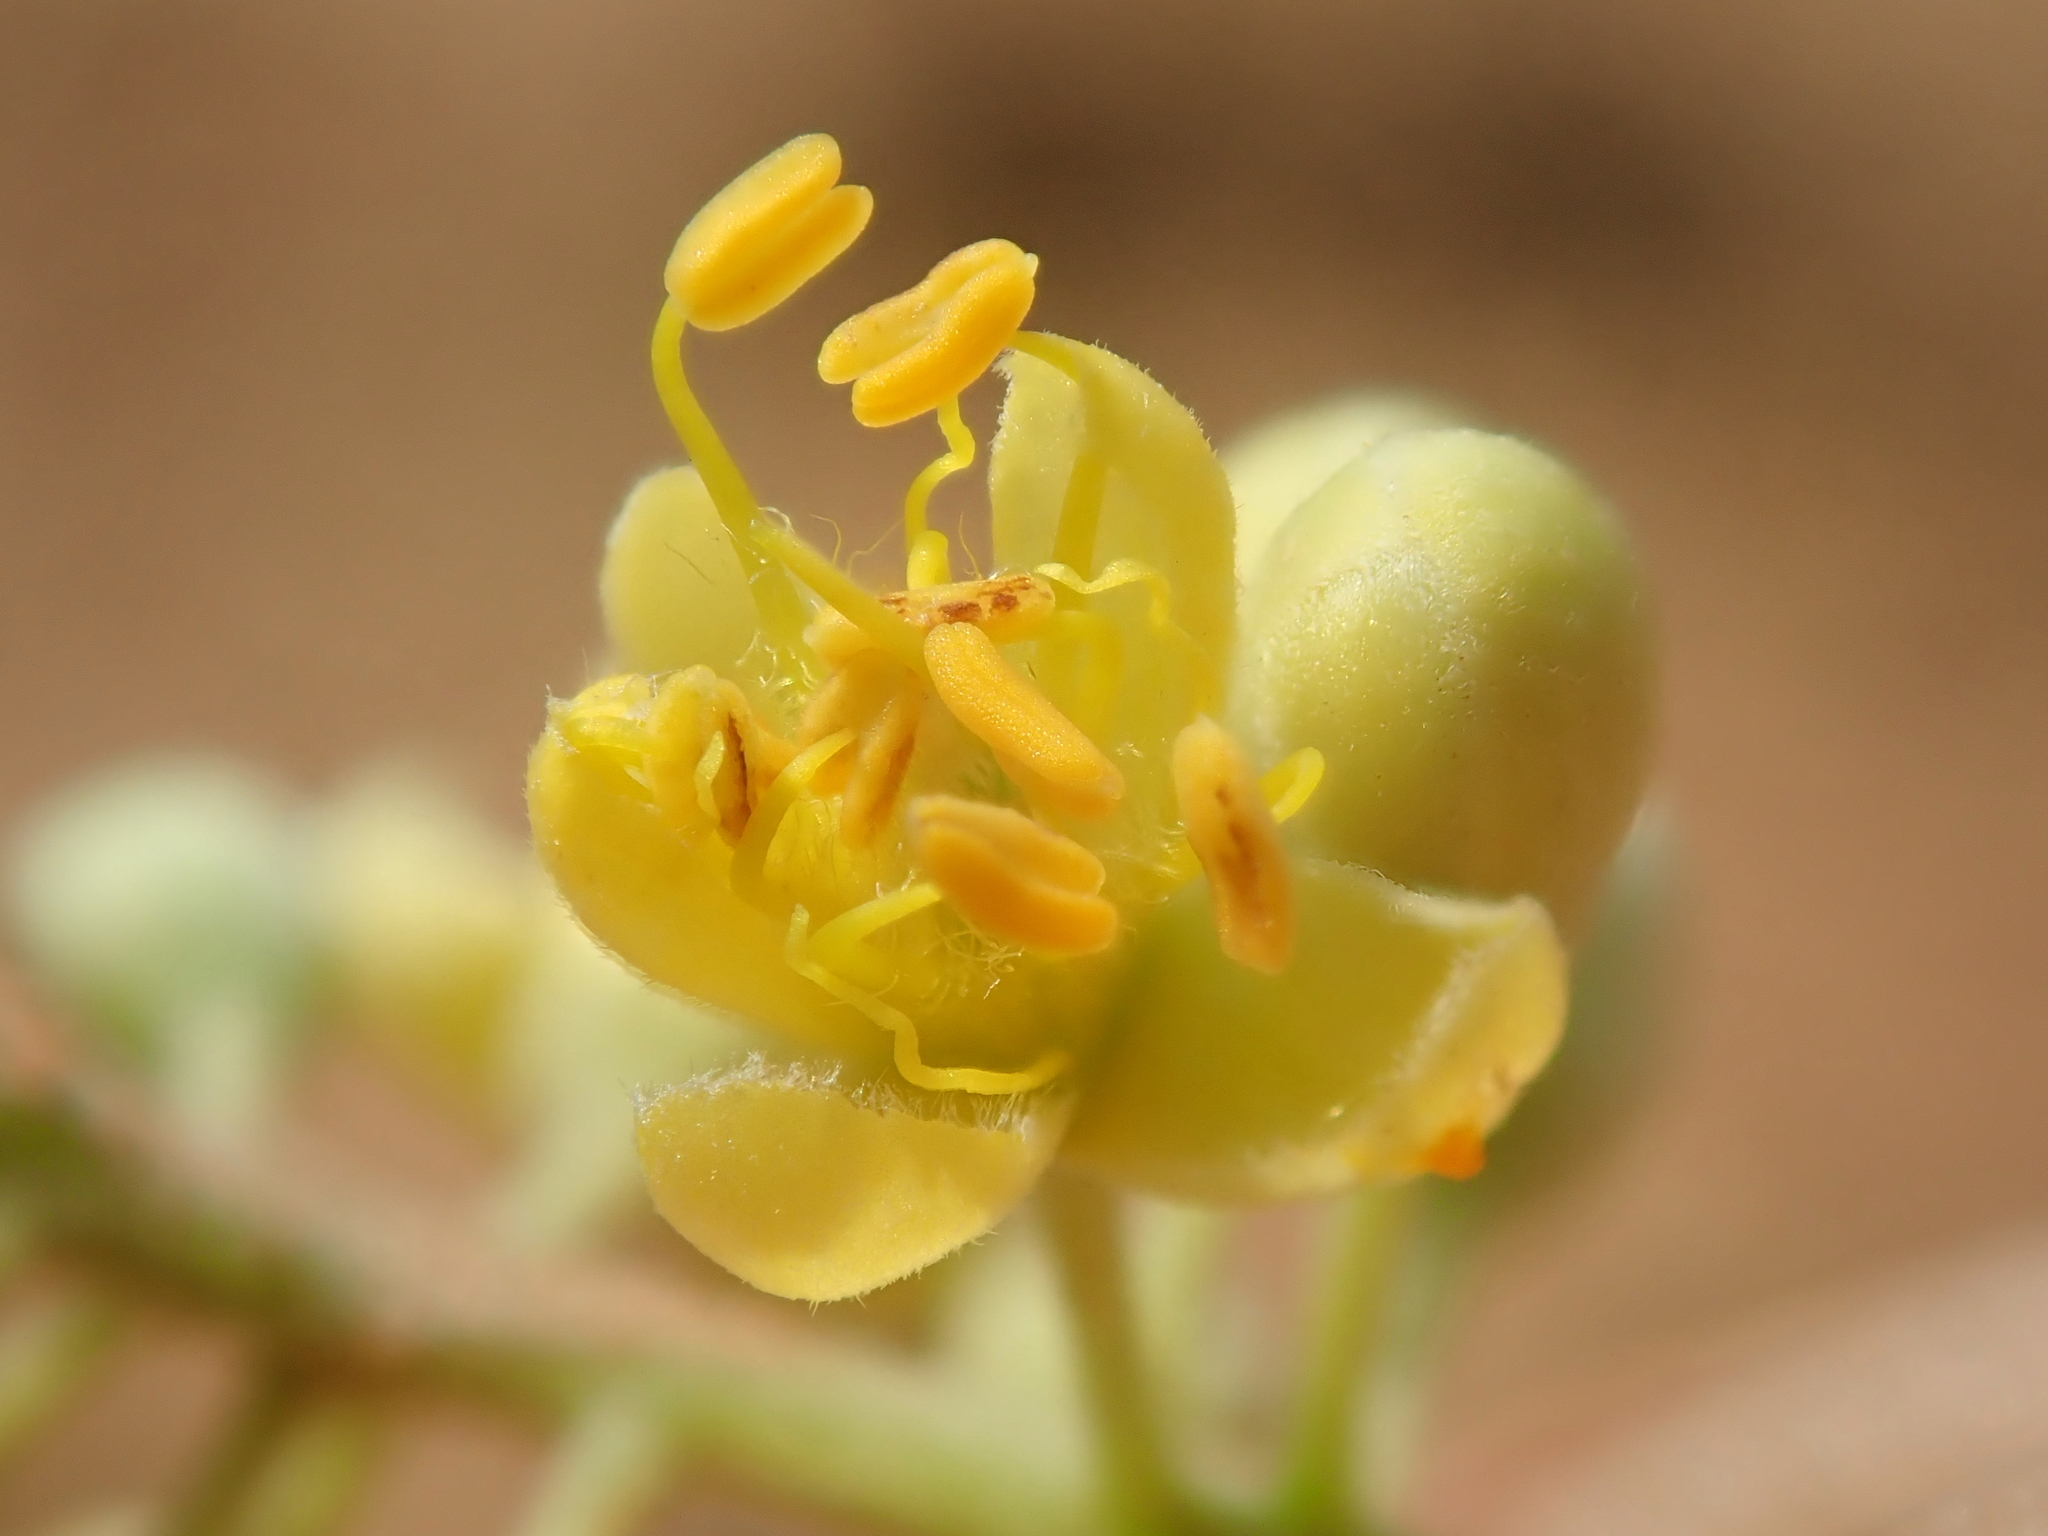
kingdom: Plantae
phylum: Tracheophyta
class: Magnoliopsida
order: Fabales
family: Fabaceae
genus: Tachigali
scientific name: Tachigali vulgaris
